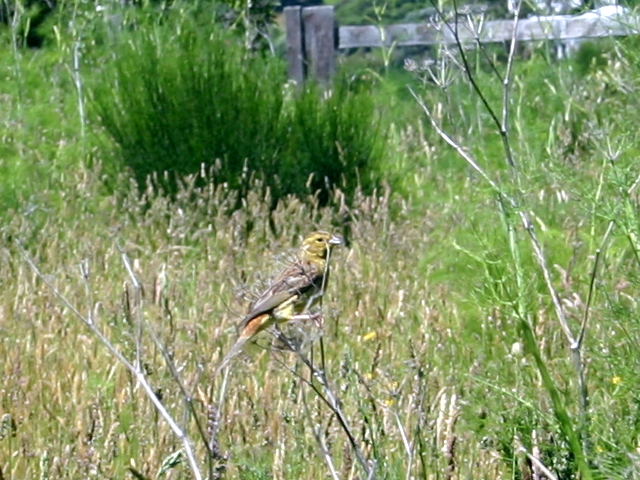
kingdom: Animalia
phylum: Chordata
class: Aves
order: Passeriformes
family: Emberizidae
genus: Emberiza
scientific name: Emberiza citrinella
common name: Yellowhammer
